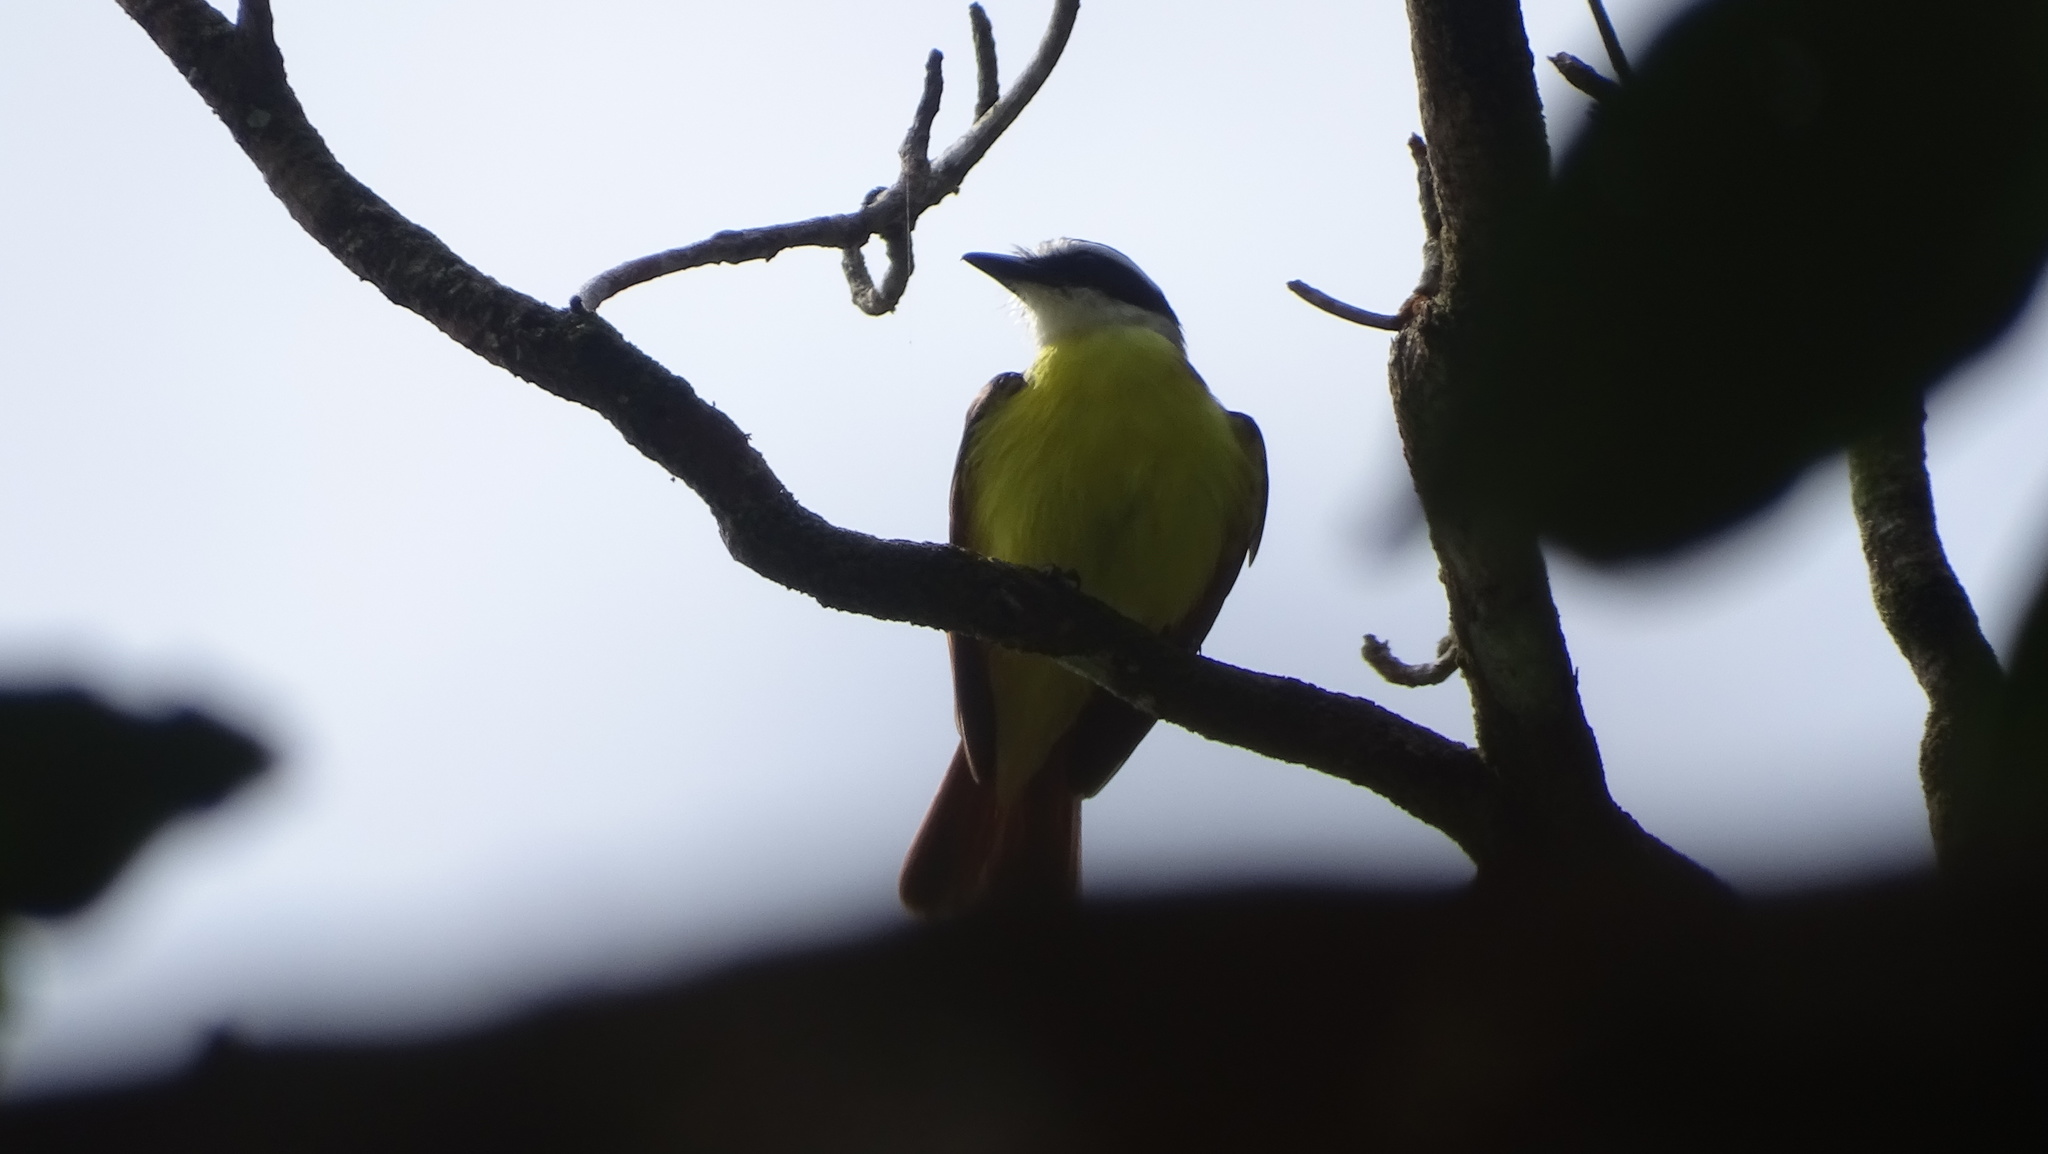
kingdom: Animalia
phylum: Chordata
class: Aves
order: Passeriformes
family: Tyrannidae
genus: Pitangus
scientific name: Pitangus sulphuratus
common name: Great kiskadee
